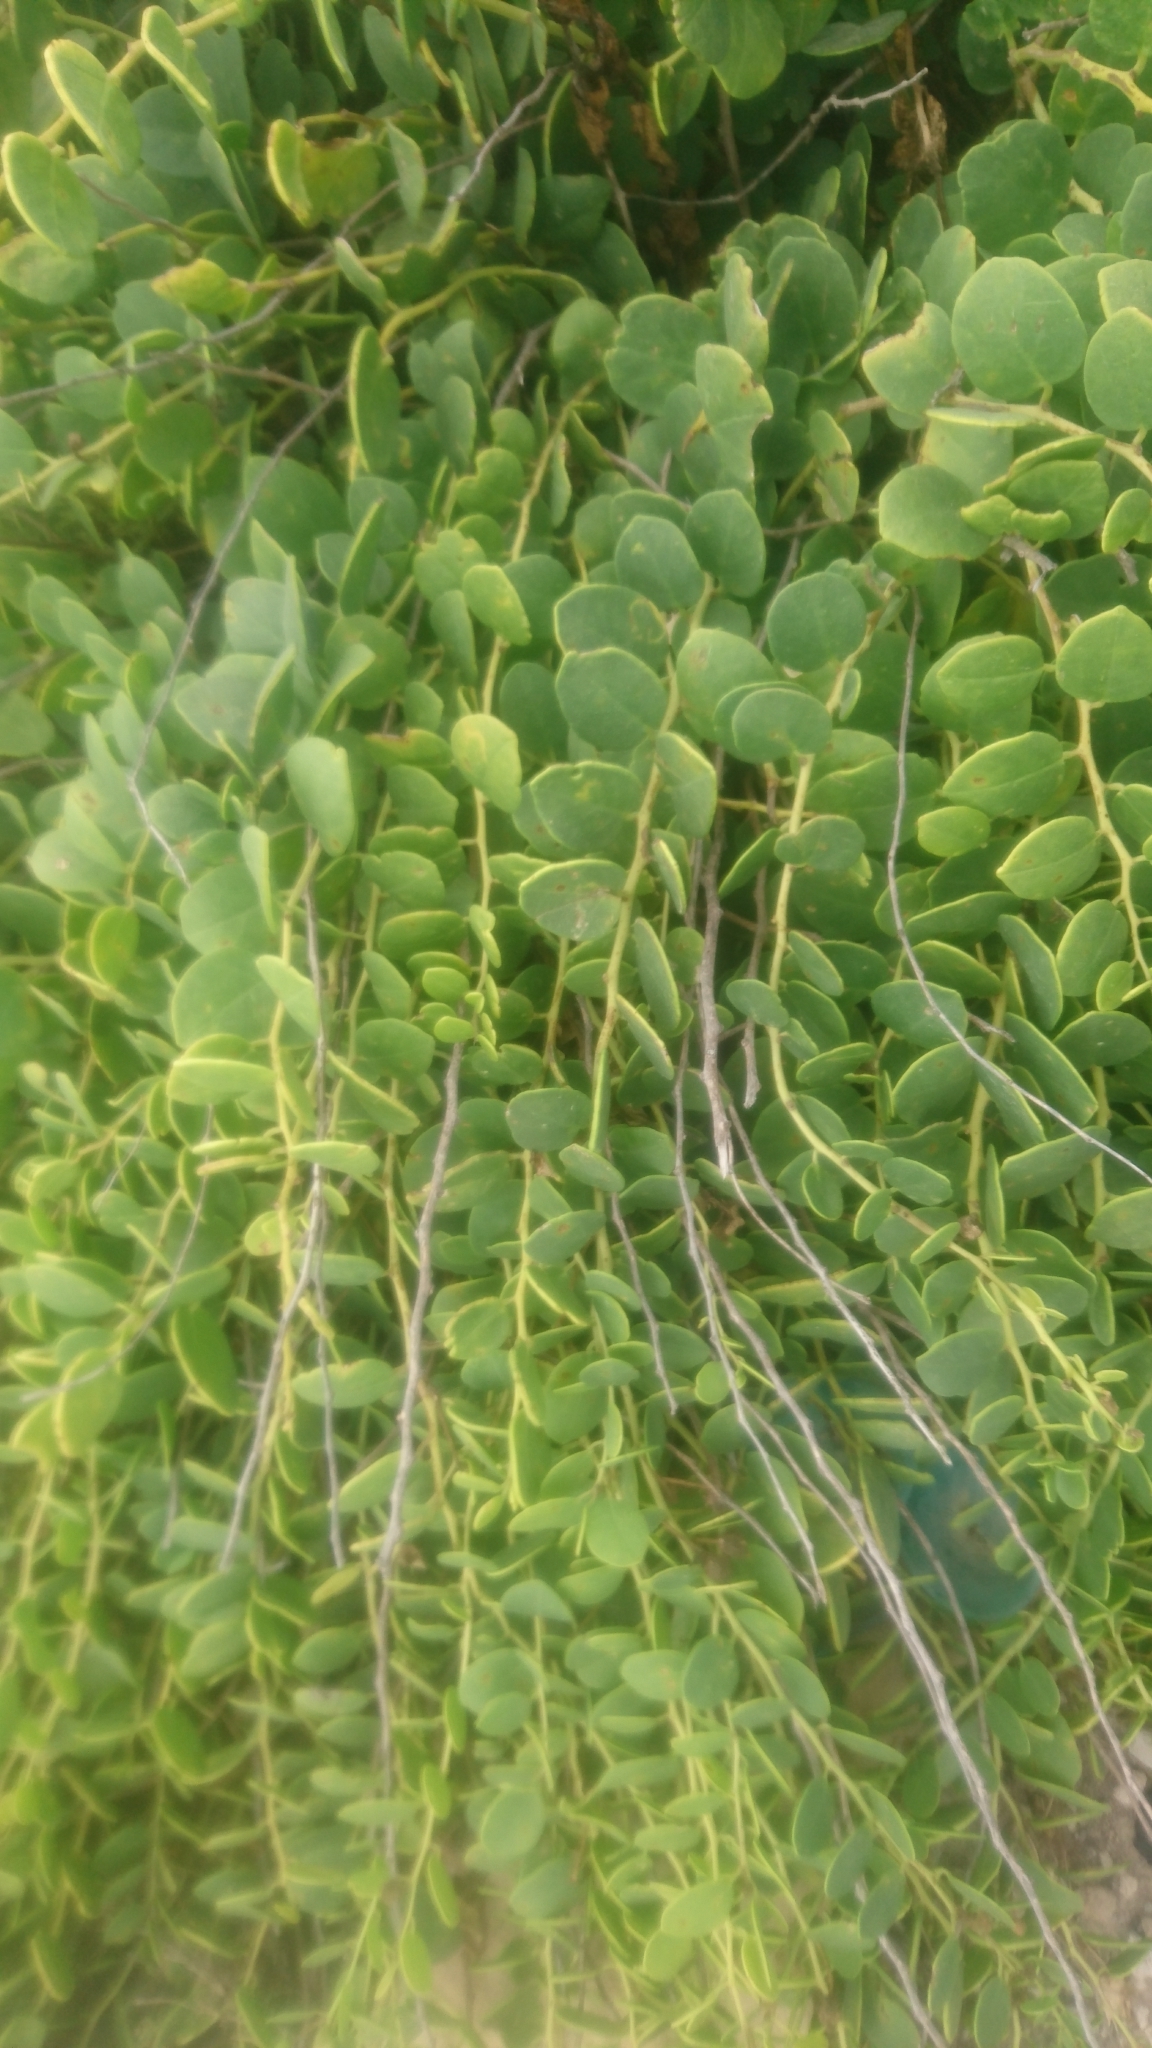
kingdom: Plantae
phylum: Tracheophyta
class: Magnoliopsida
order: Brassicales
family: Capparaceae
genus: Capparis
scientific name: Capparis orientalis
